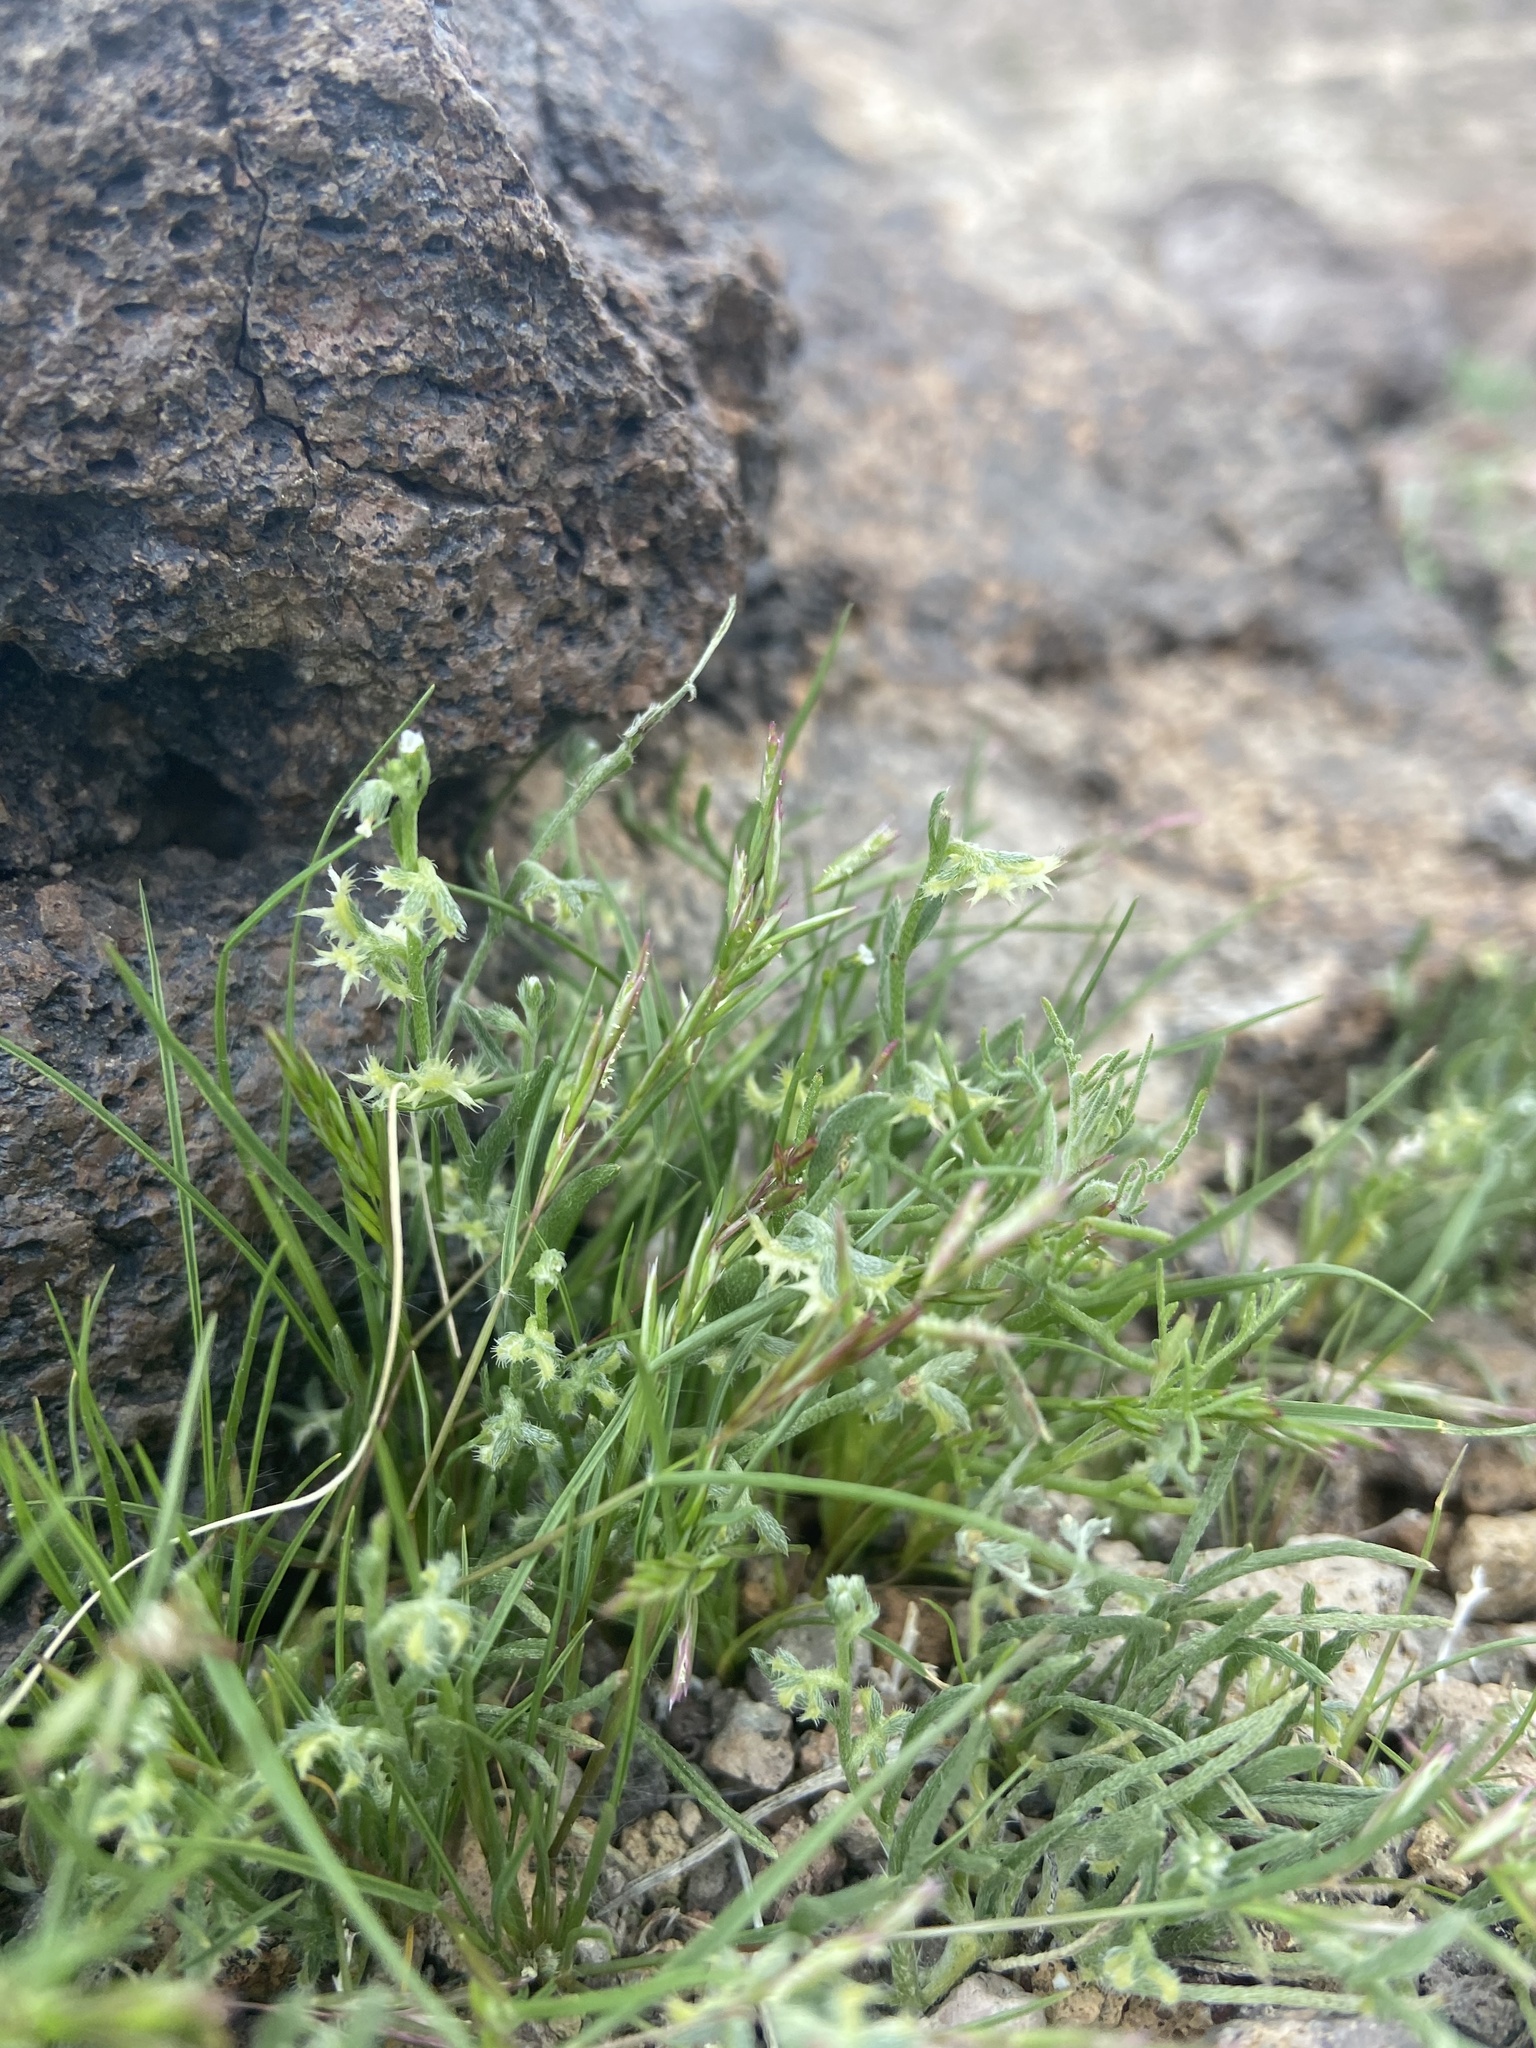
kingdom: Plantae
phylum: Tracheophyta
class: Magnoliopsida
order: Boraginales
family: Boraginaceae
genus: Pectocarya
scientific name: Pectocarya platycarpa
